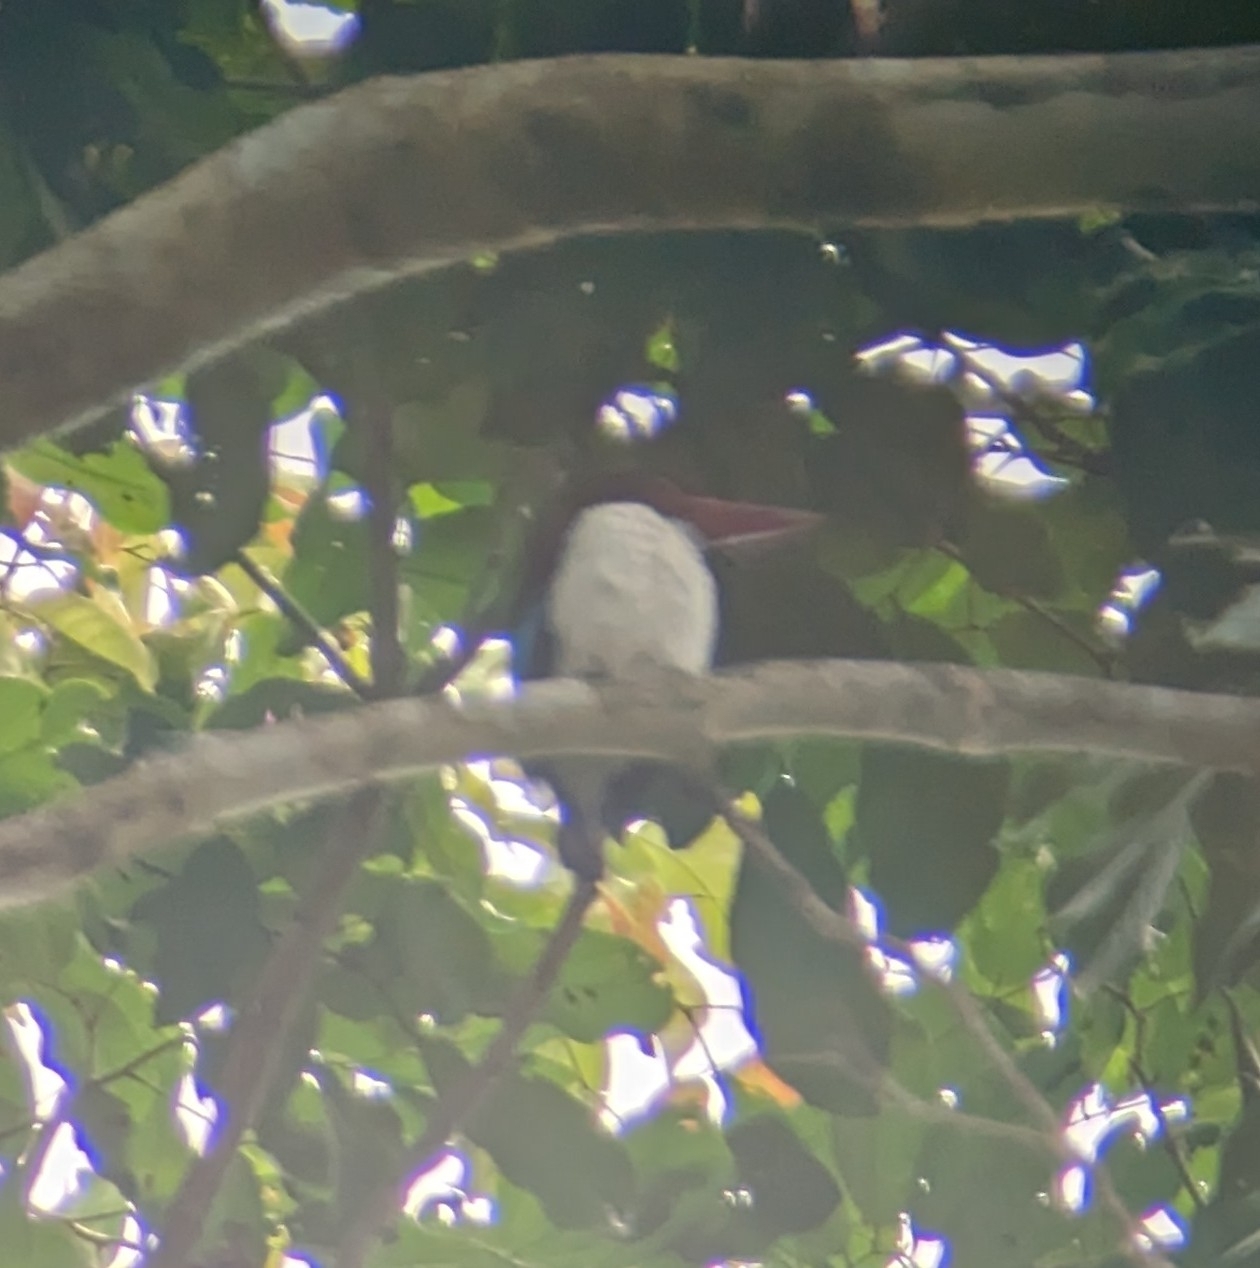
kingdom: Animalia
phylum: Chordata
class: Aves
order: Coraciiformes
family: Alcedinidae
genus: Halcyon
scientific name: Halcyon badia
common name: Chocolate-backed kingfisher
